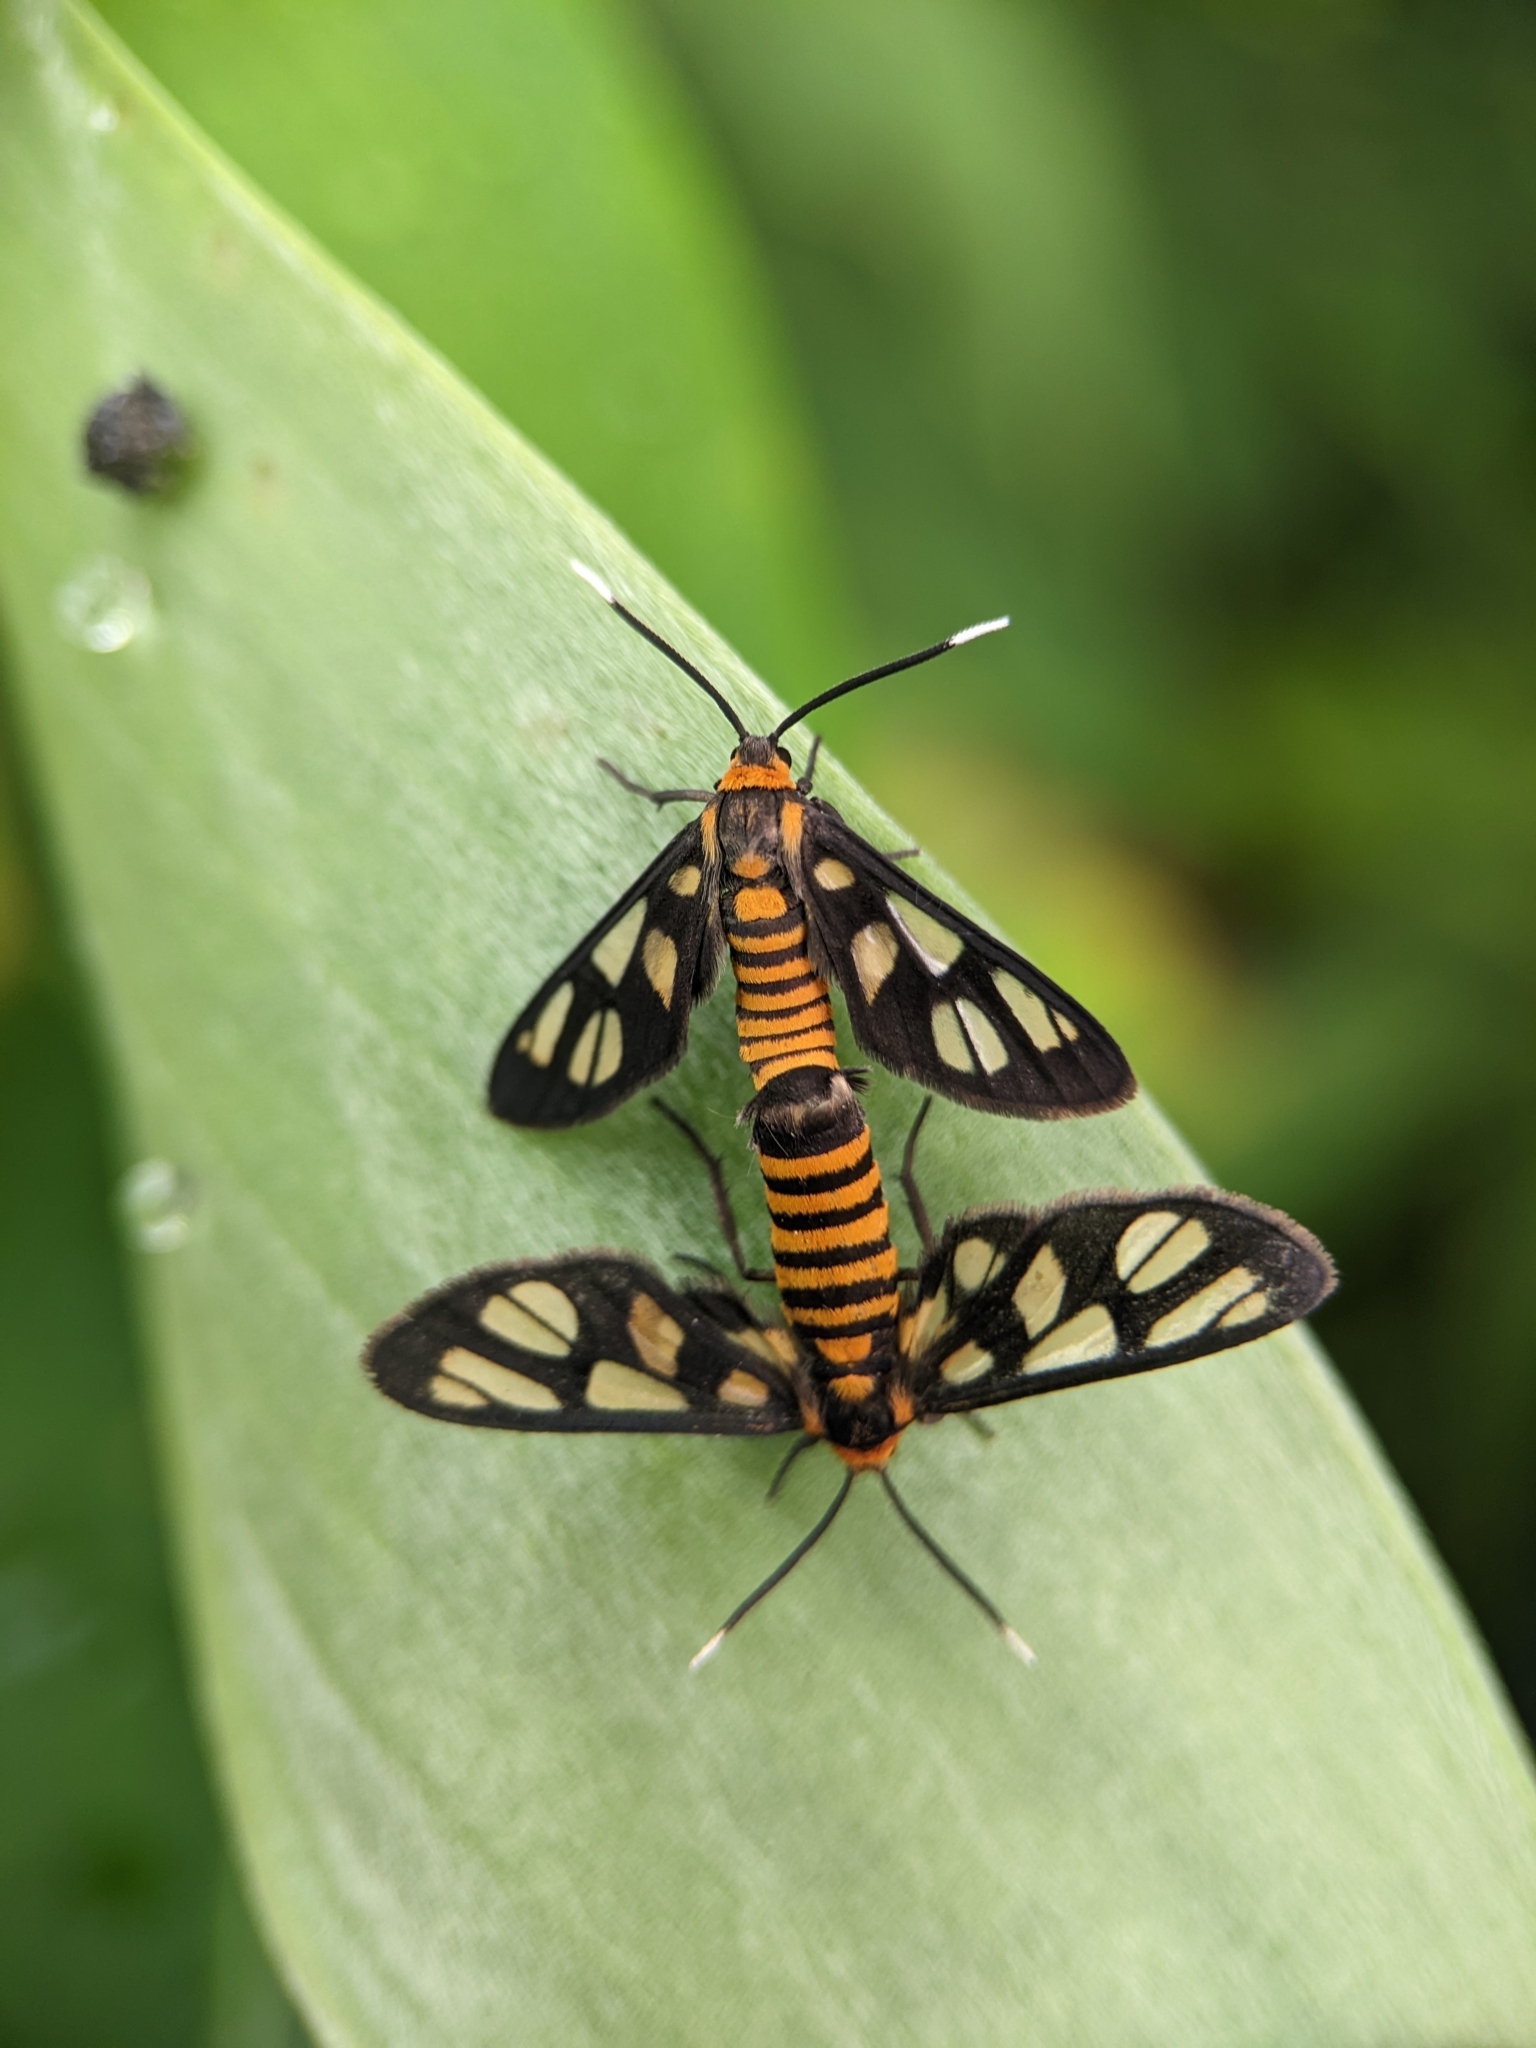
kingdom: Animalia
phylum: Arthropoda
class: Insecta
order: Lepidoptera
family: Erebidae
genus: Amata
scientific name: Amata huebneri
